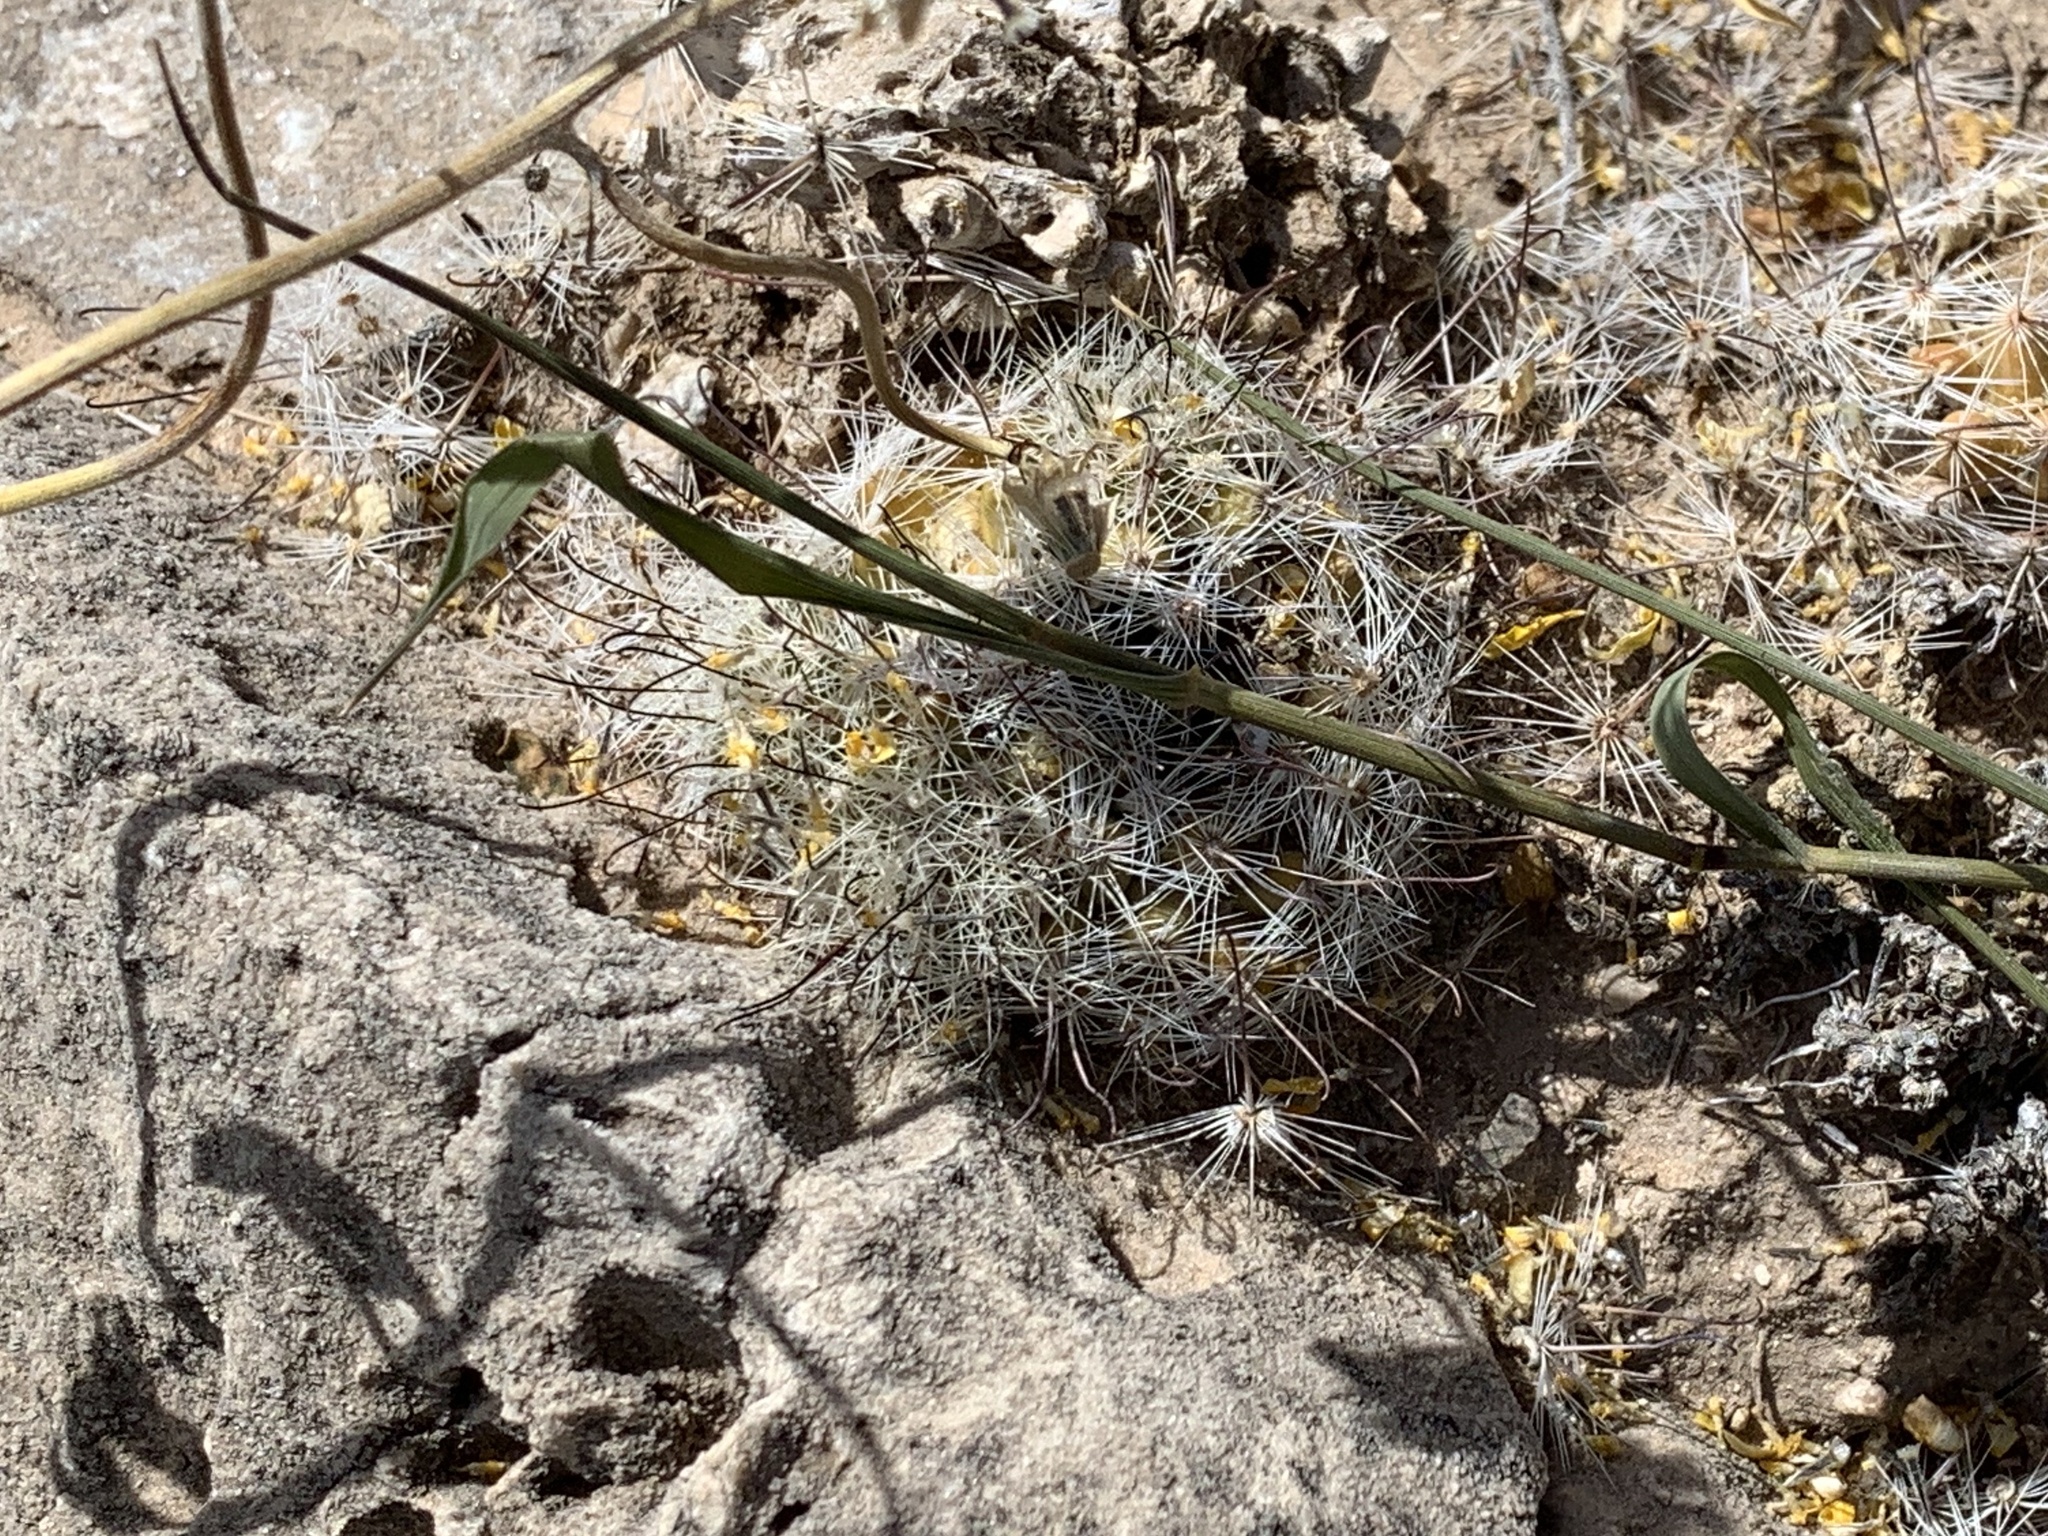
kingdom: Plantae
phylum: Tracheophyta
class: Magnoliopsida
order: Caryophyllales
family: Cactaceae
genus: Cochemiea
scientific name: Cochemiea grahamii
